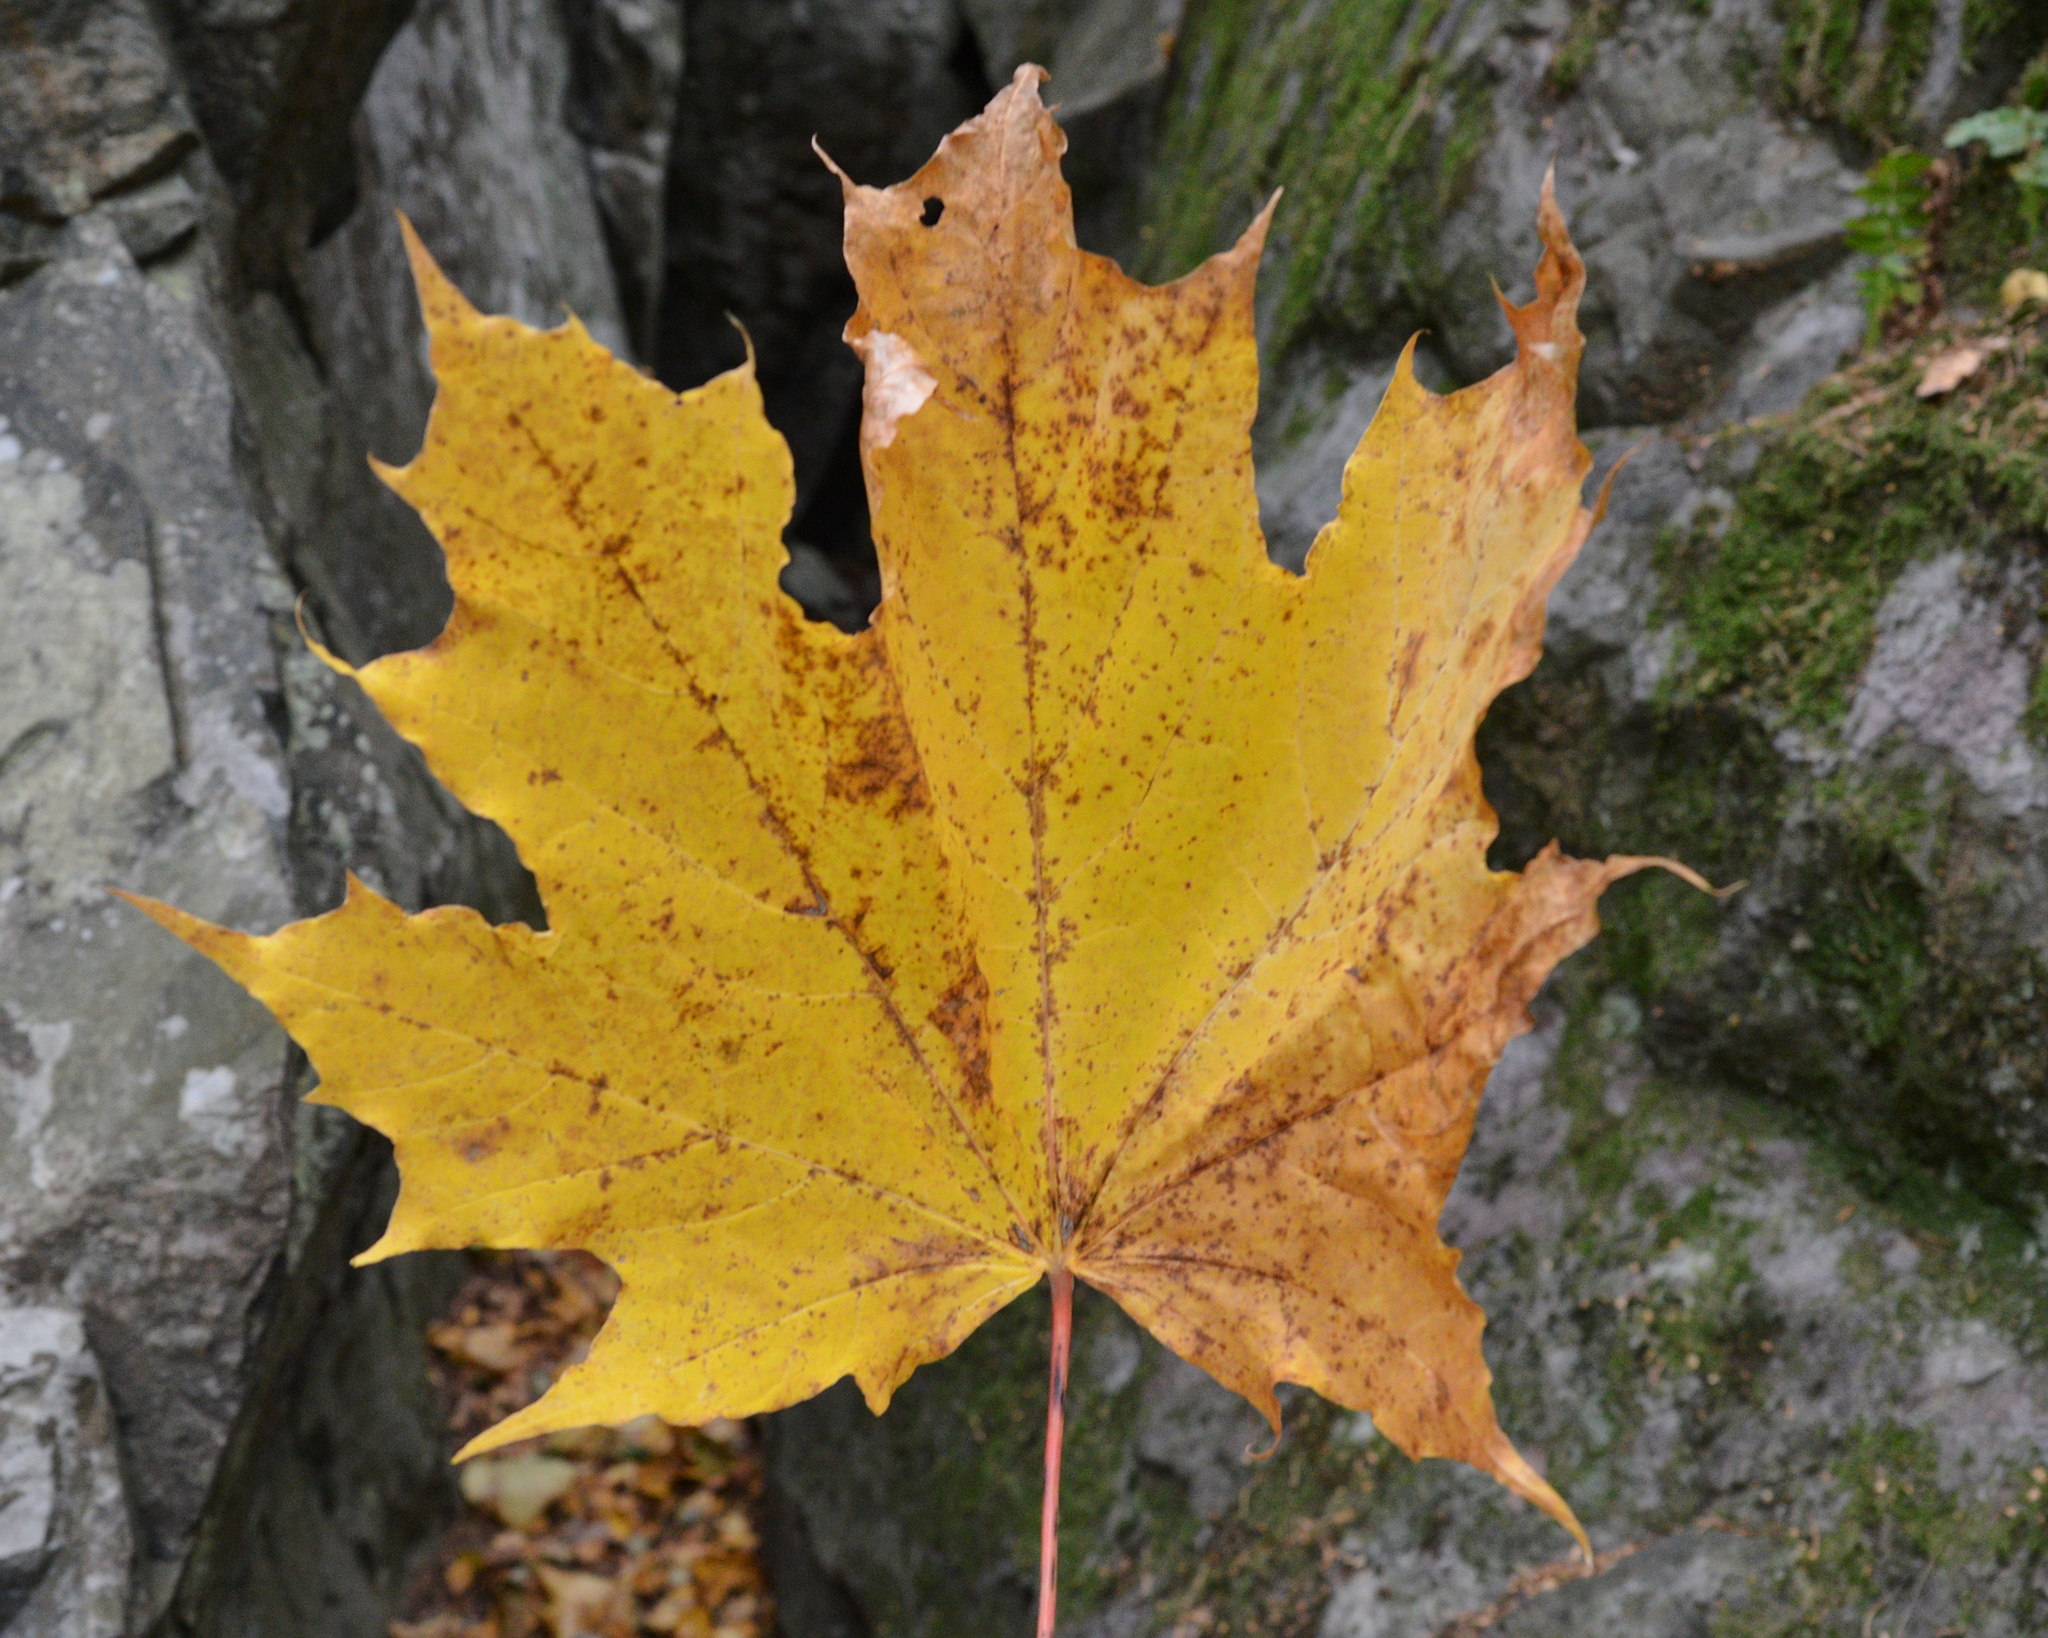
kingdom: Plantae
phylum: Tracheophyta
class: Magnoliopsida
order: Sapindales
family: Sapindaceae
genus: Acer
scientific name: Acer platanoides
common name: Norway maple
